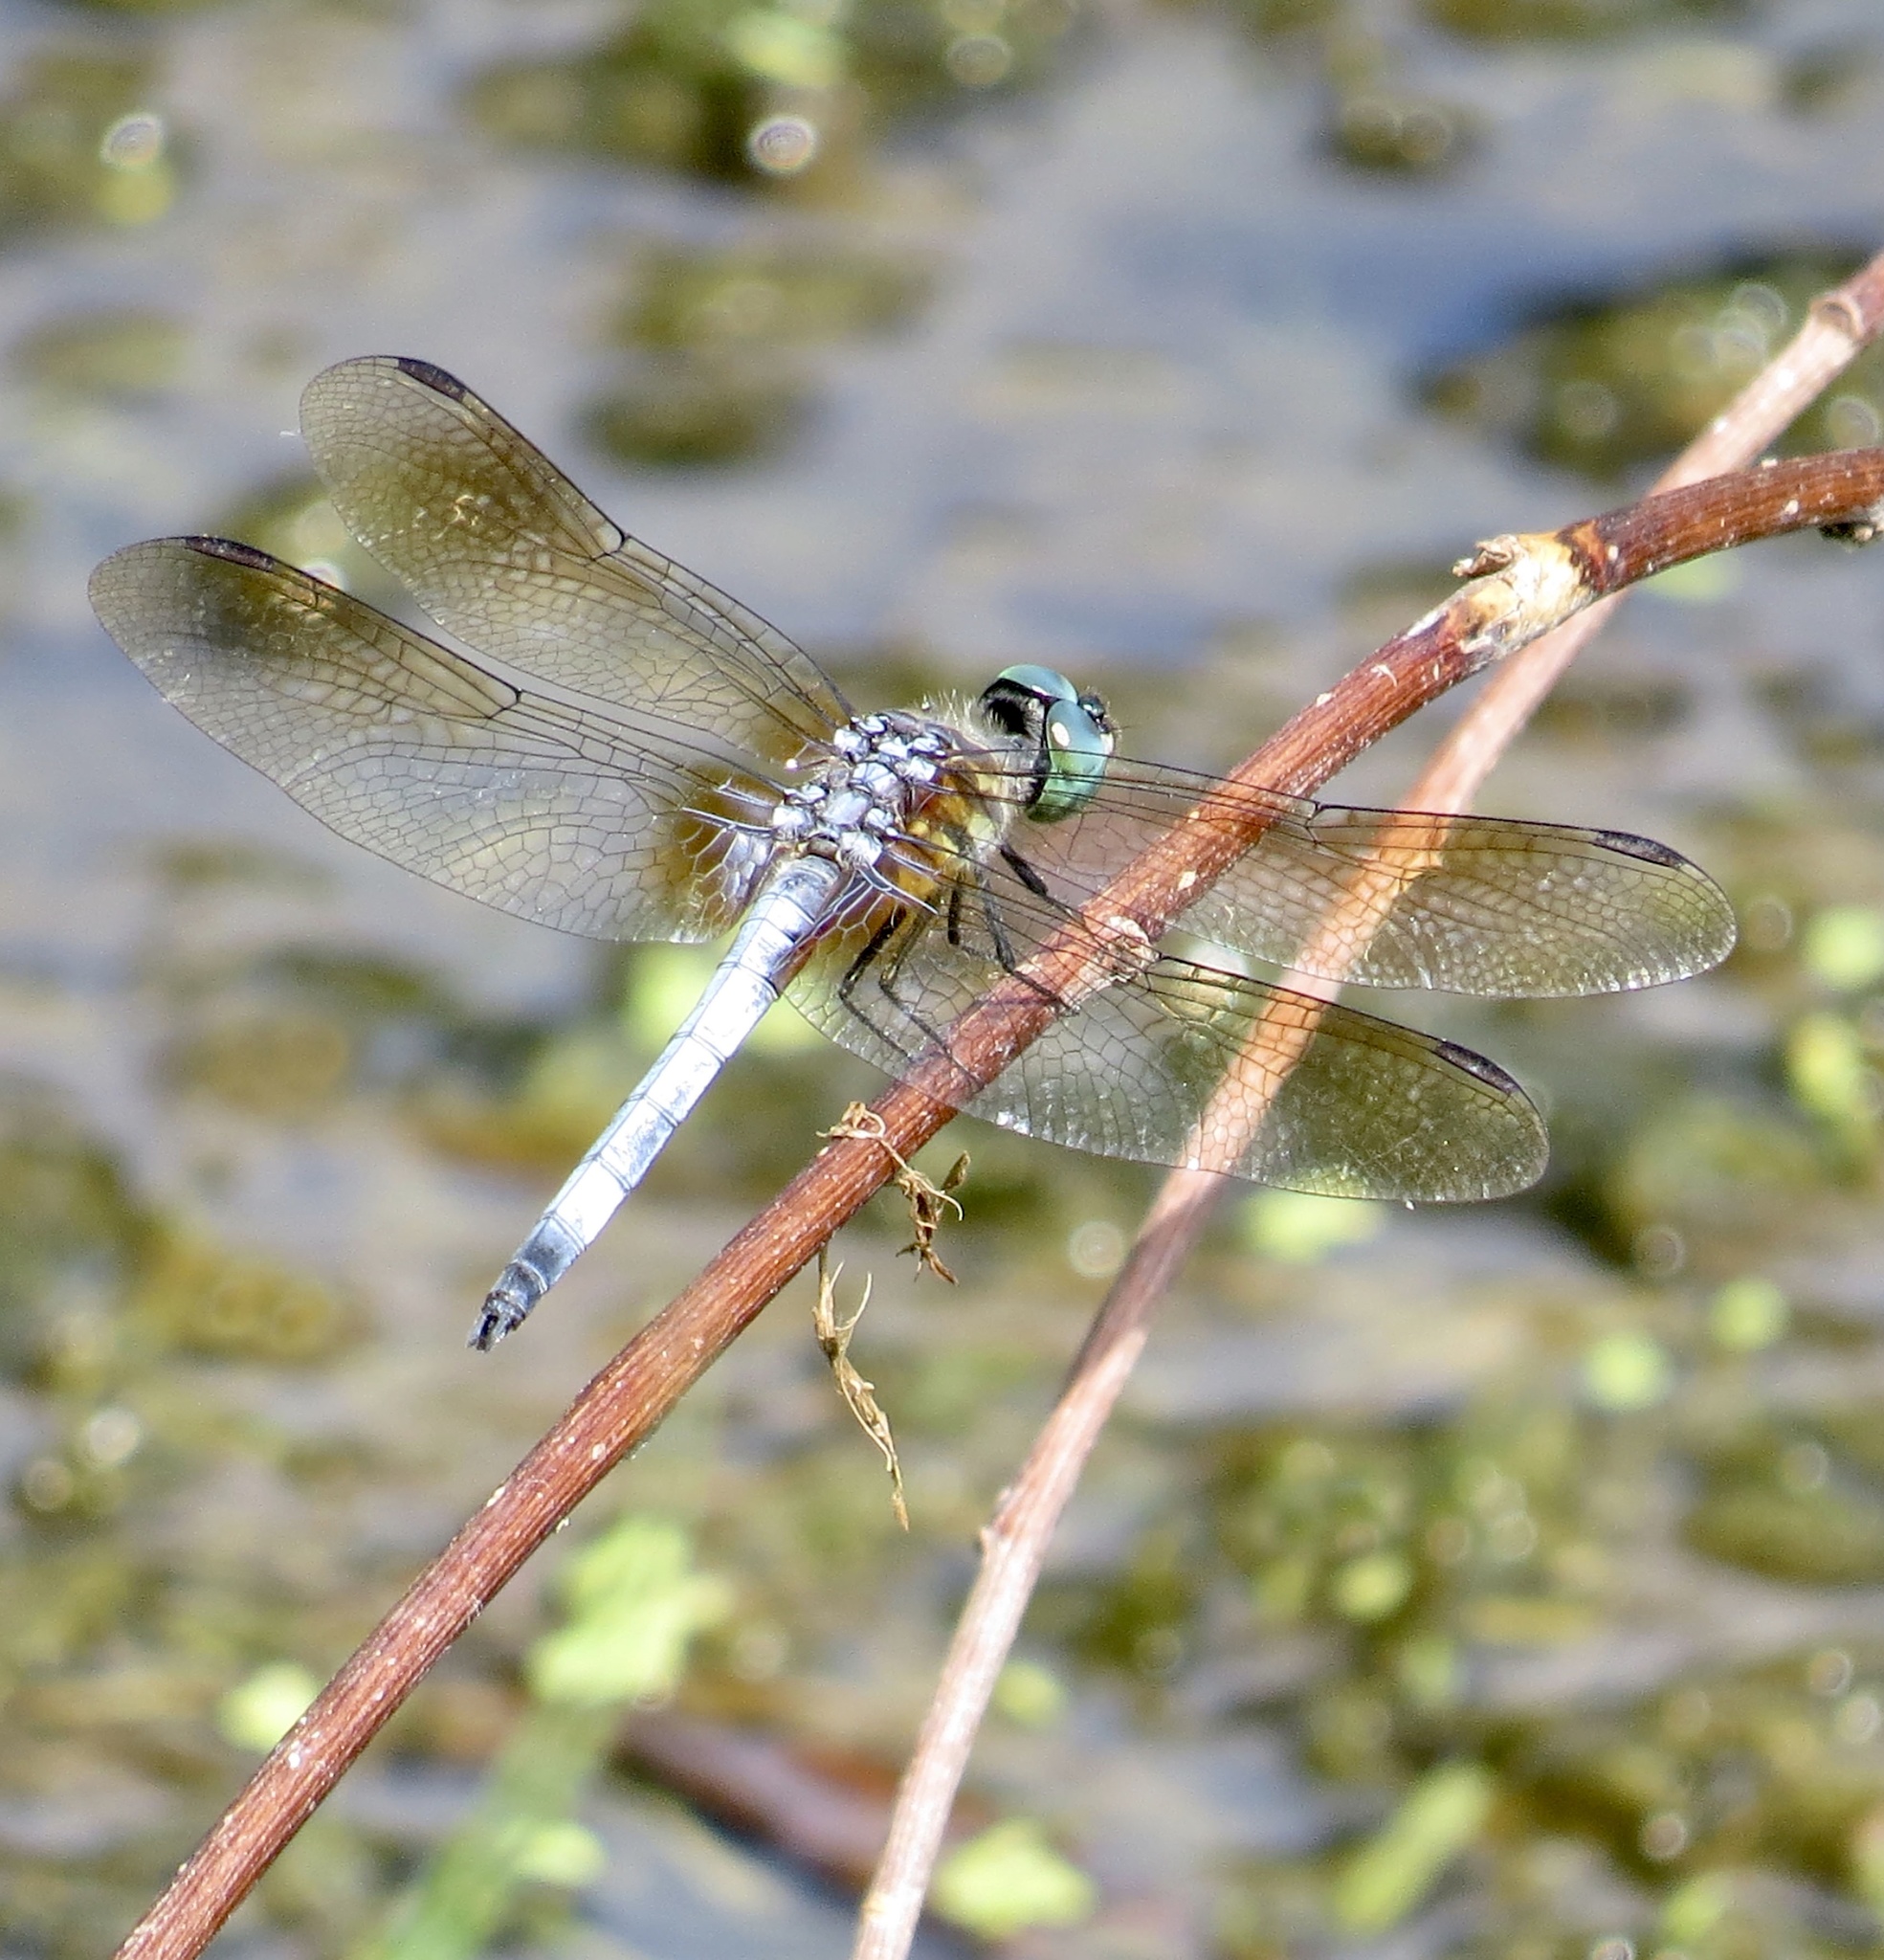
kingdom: Animalia
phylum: Arthropoda
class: Insecta
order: Odonata
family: Libellulidae
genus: Erythemis
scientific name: Erythemis simplicicollis
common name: Eastern pondhawk
